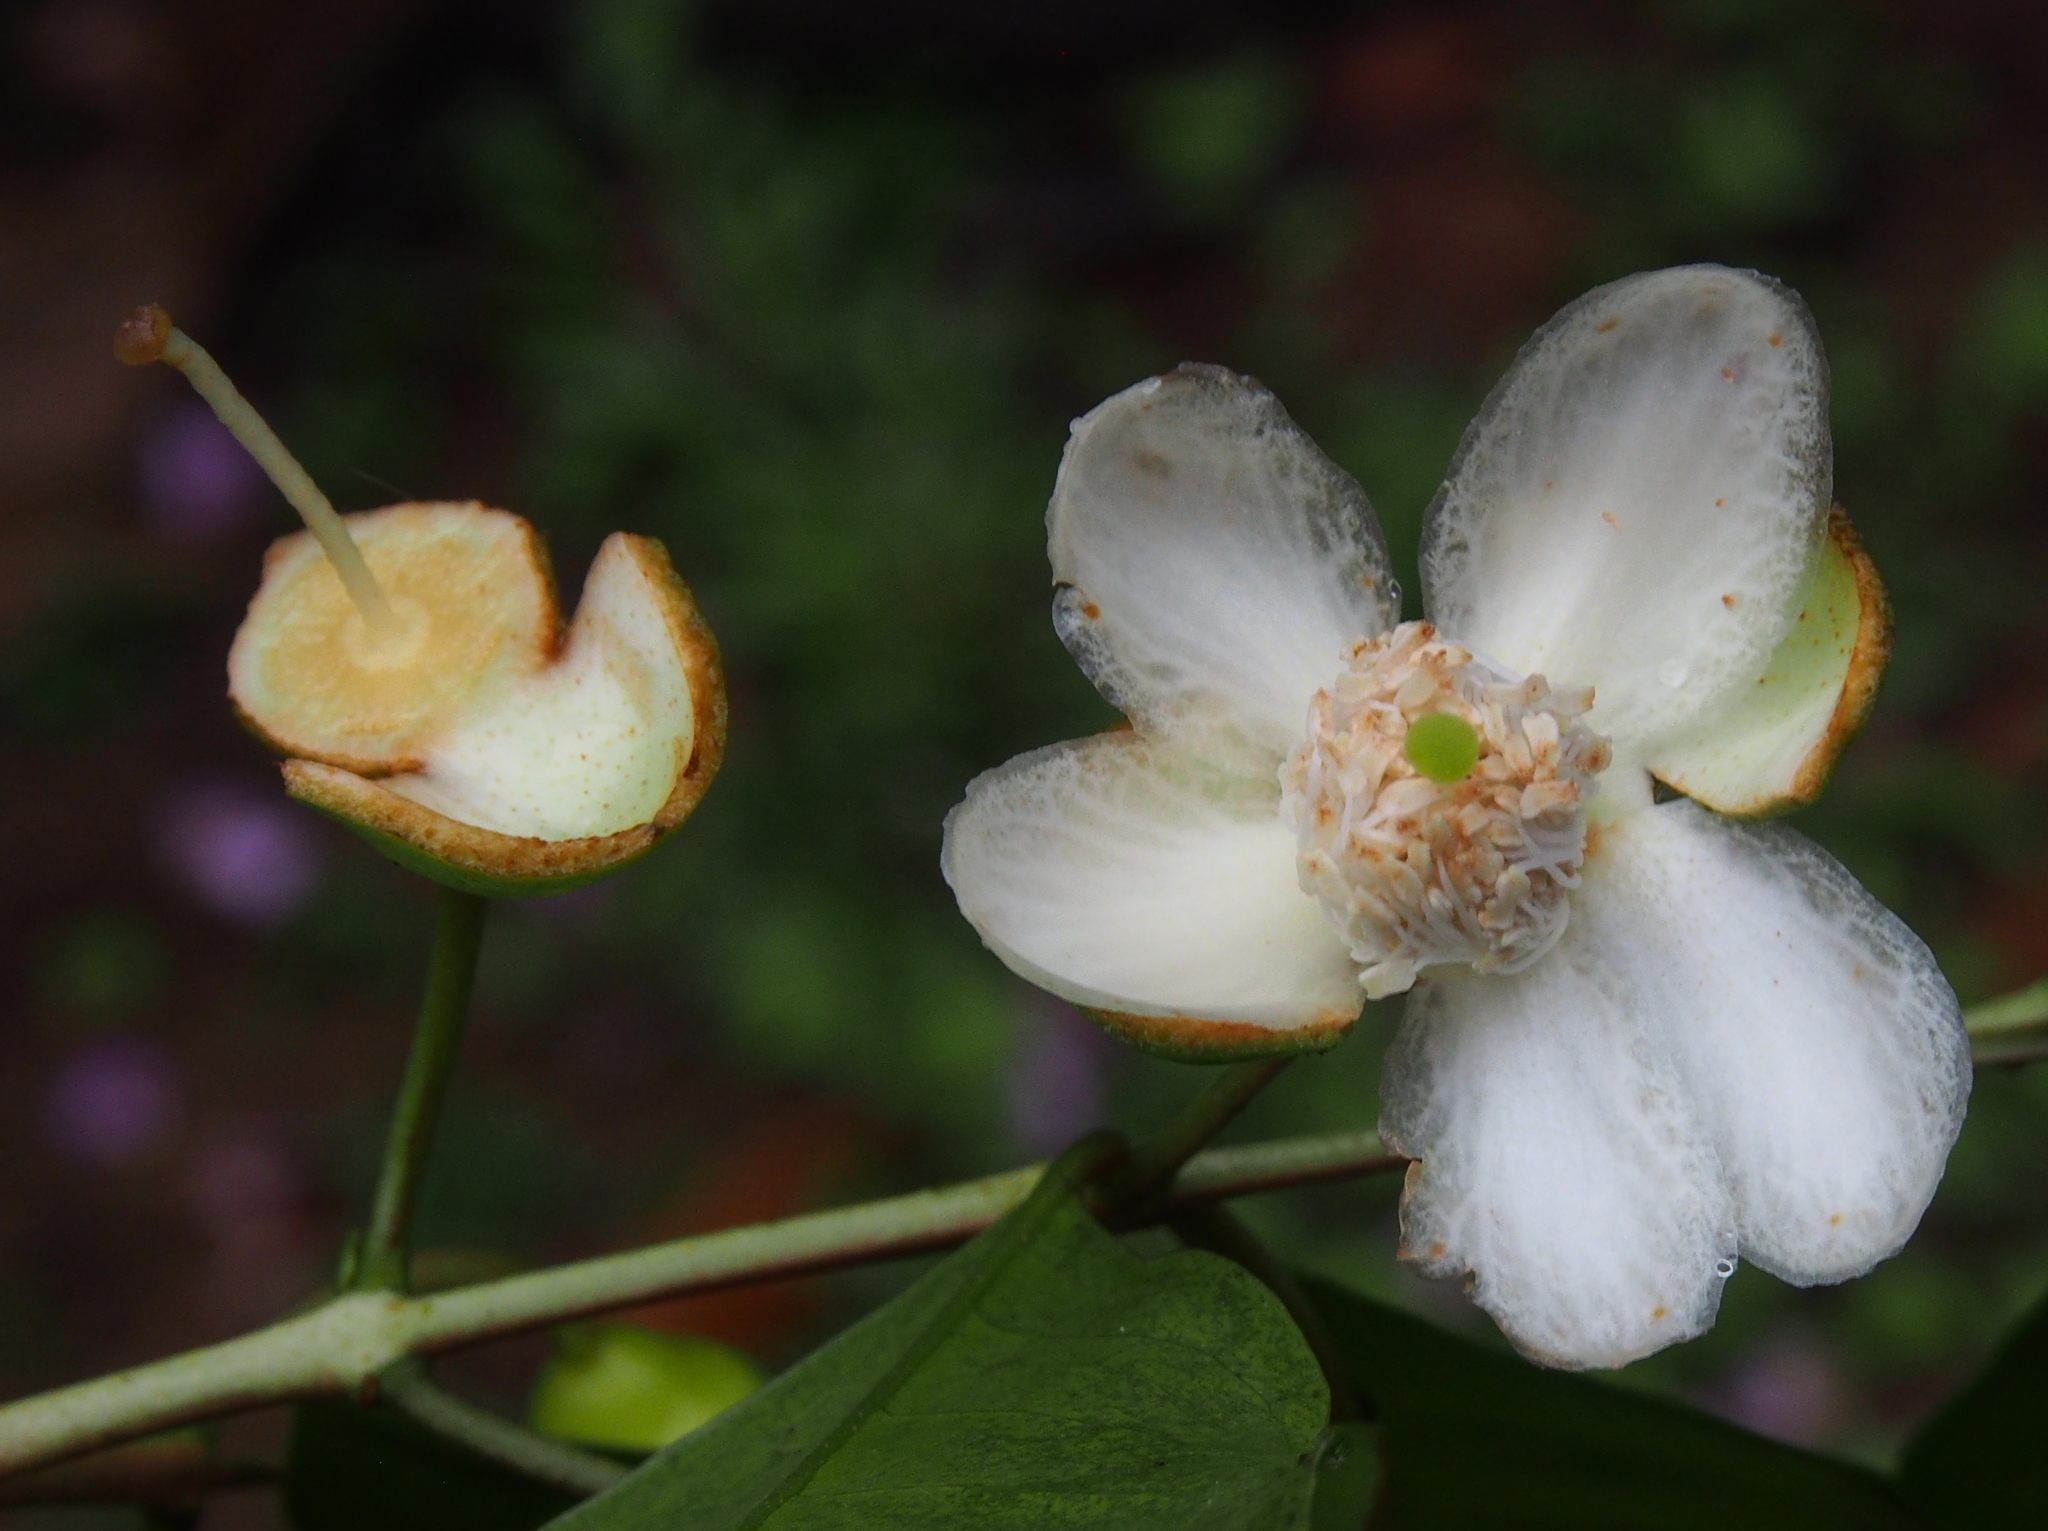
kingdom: Plantae
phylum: Tracheophyta
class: Magnoliopsida
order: Myrtales
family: Myrtaceae
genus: Psidium
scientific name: Psidium friedrichsthalianum
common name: Costa rican guava
